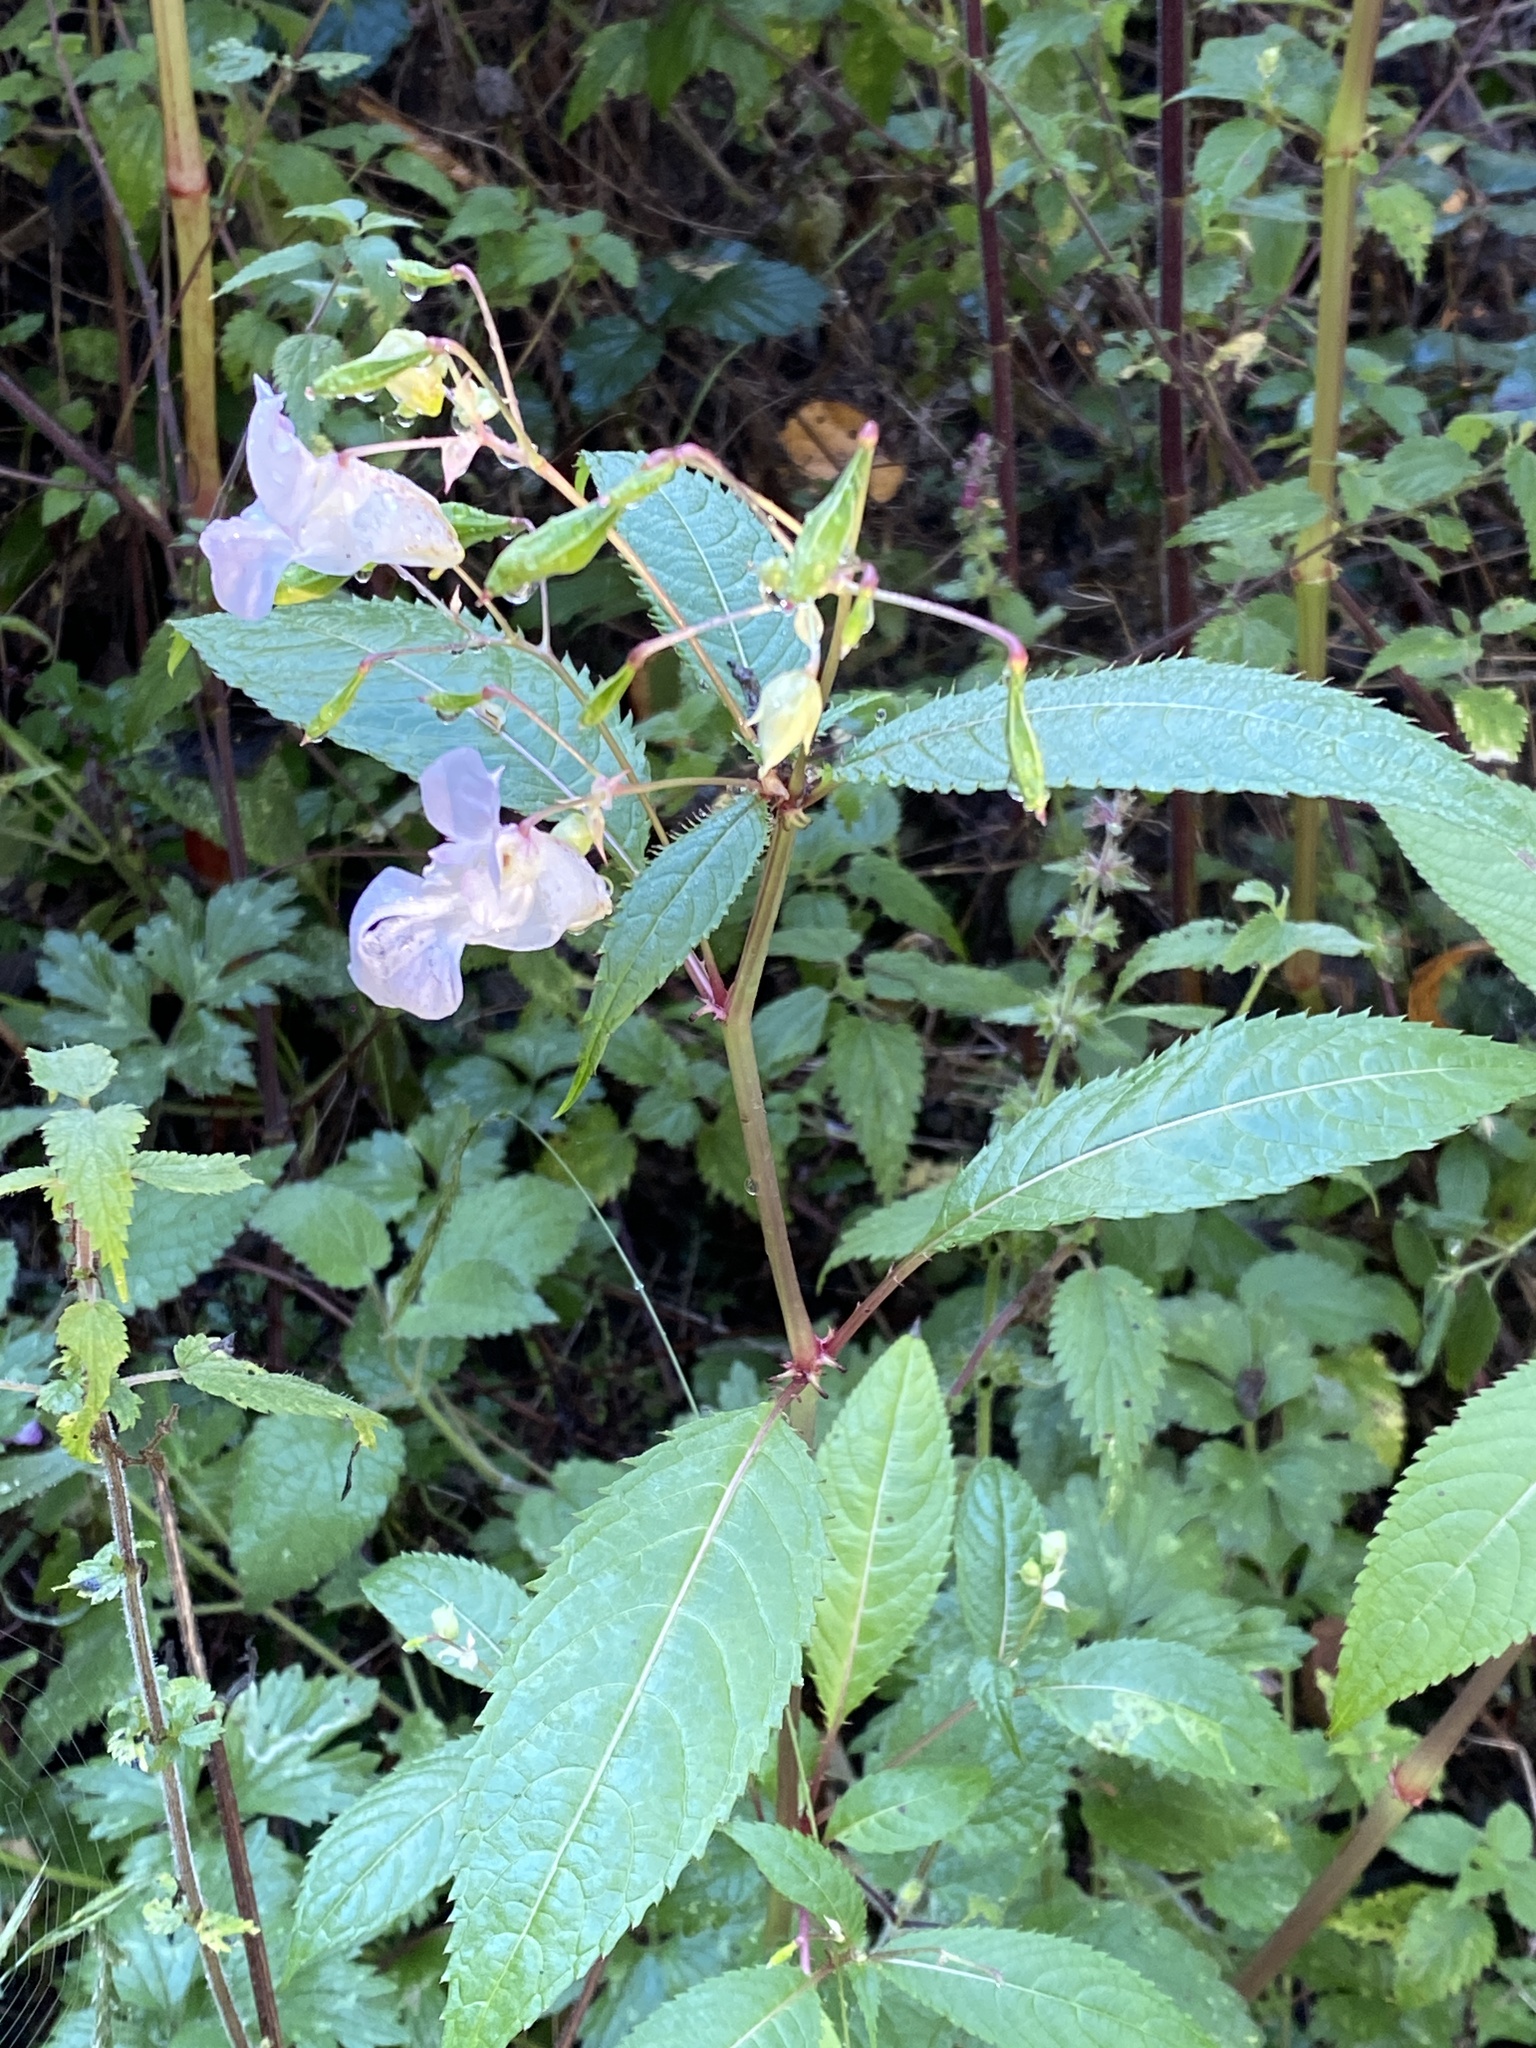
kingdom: Plantae
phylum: Tracheophyta
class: Magnoliopsida
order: Ericales
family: Balsaminaceae
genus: Impatiens
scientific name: Impatiens glandulifera
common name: Himalayan balsam
